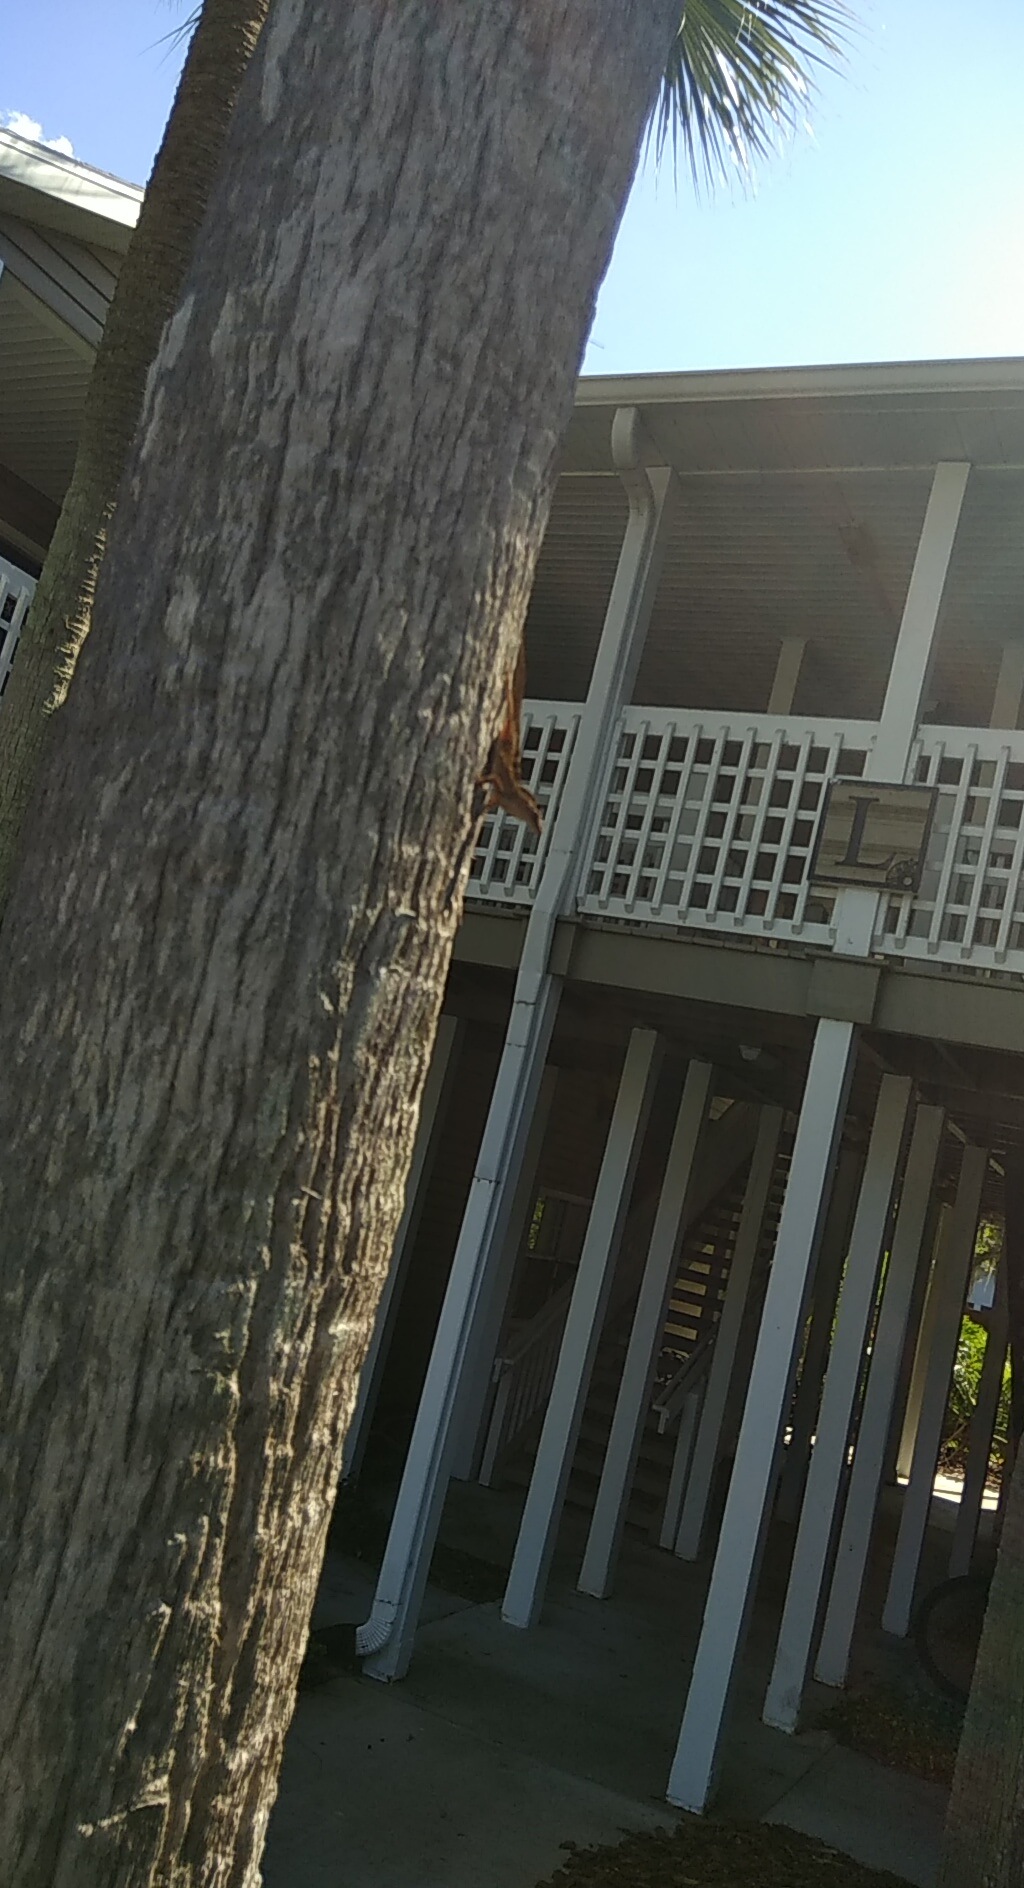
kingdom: Animalia
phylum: Chordata
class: Squamata
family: Dactyloidae
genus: Anolis
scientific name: Anolis sagrei
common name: Brown anole
